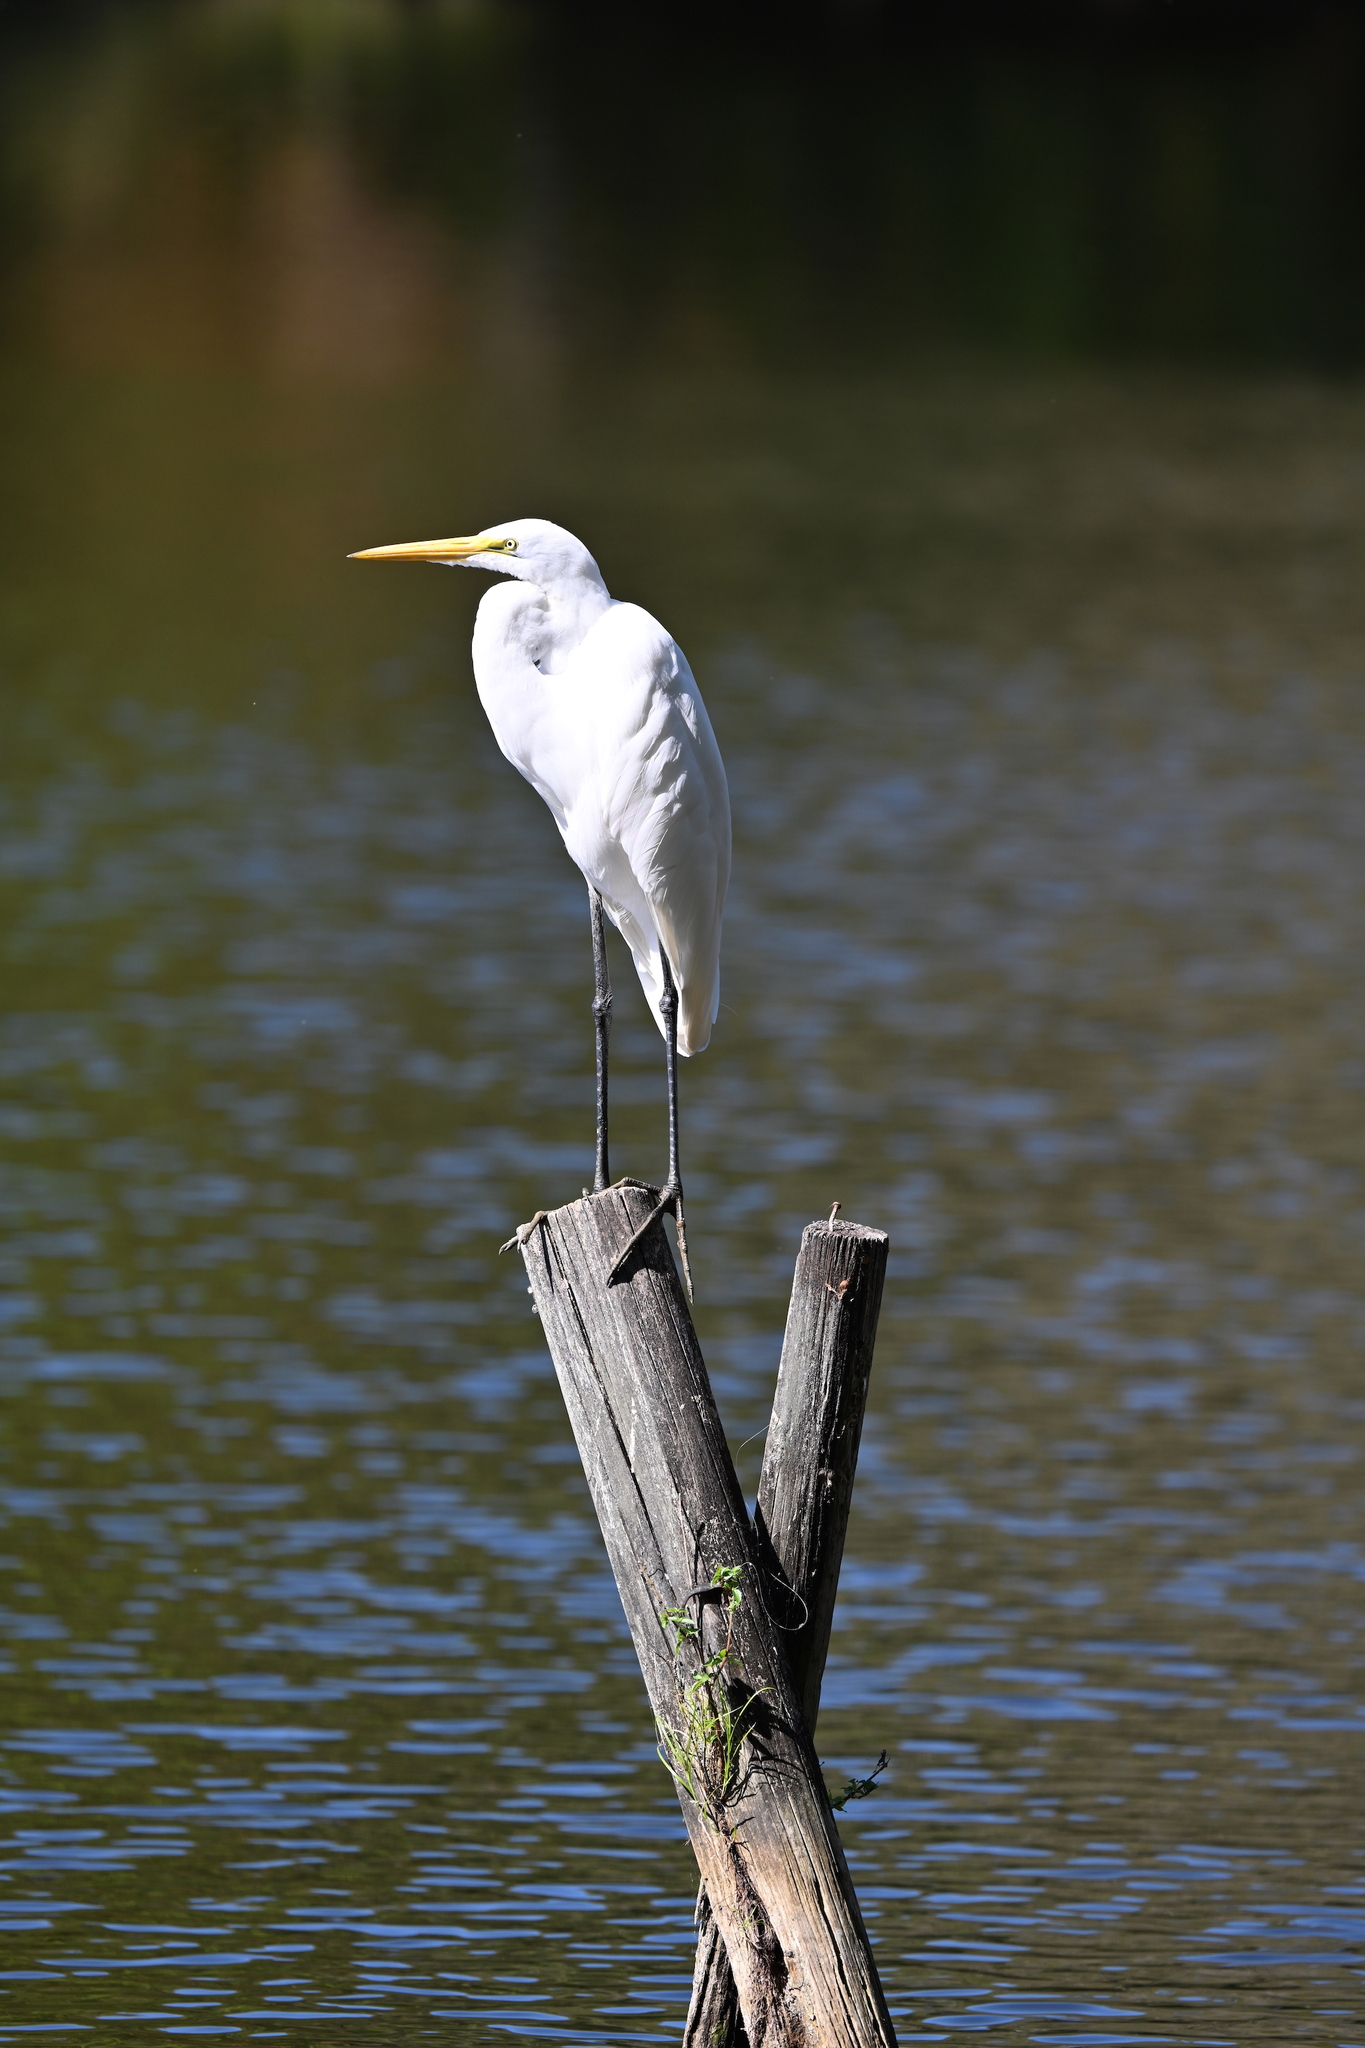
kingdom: Animalia
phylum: Chordata
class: Aves
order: Pelecaniformes
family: Ardeidae
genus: Ardea
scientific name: Ardea alba
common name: Great egret
